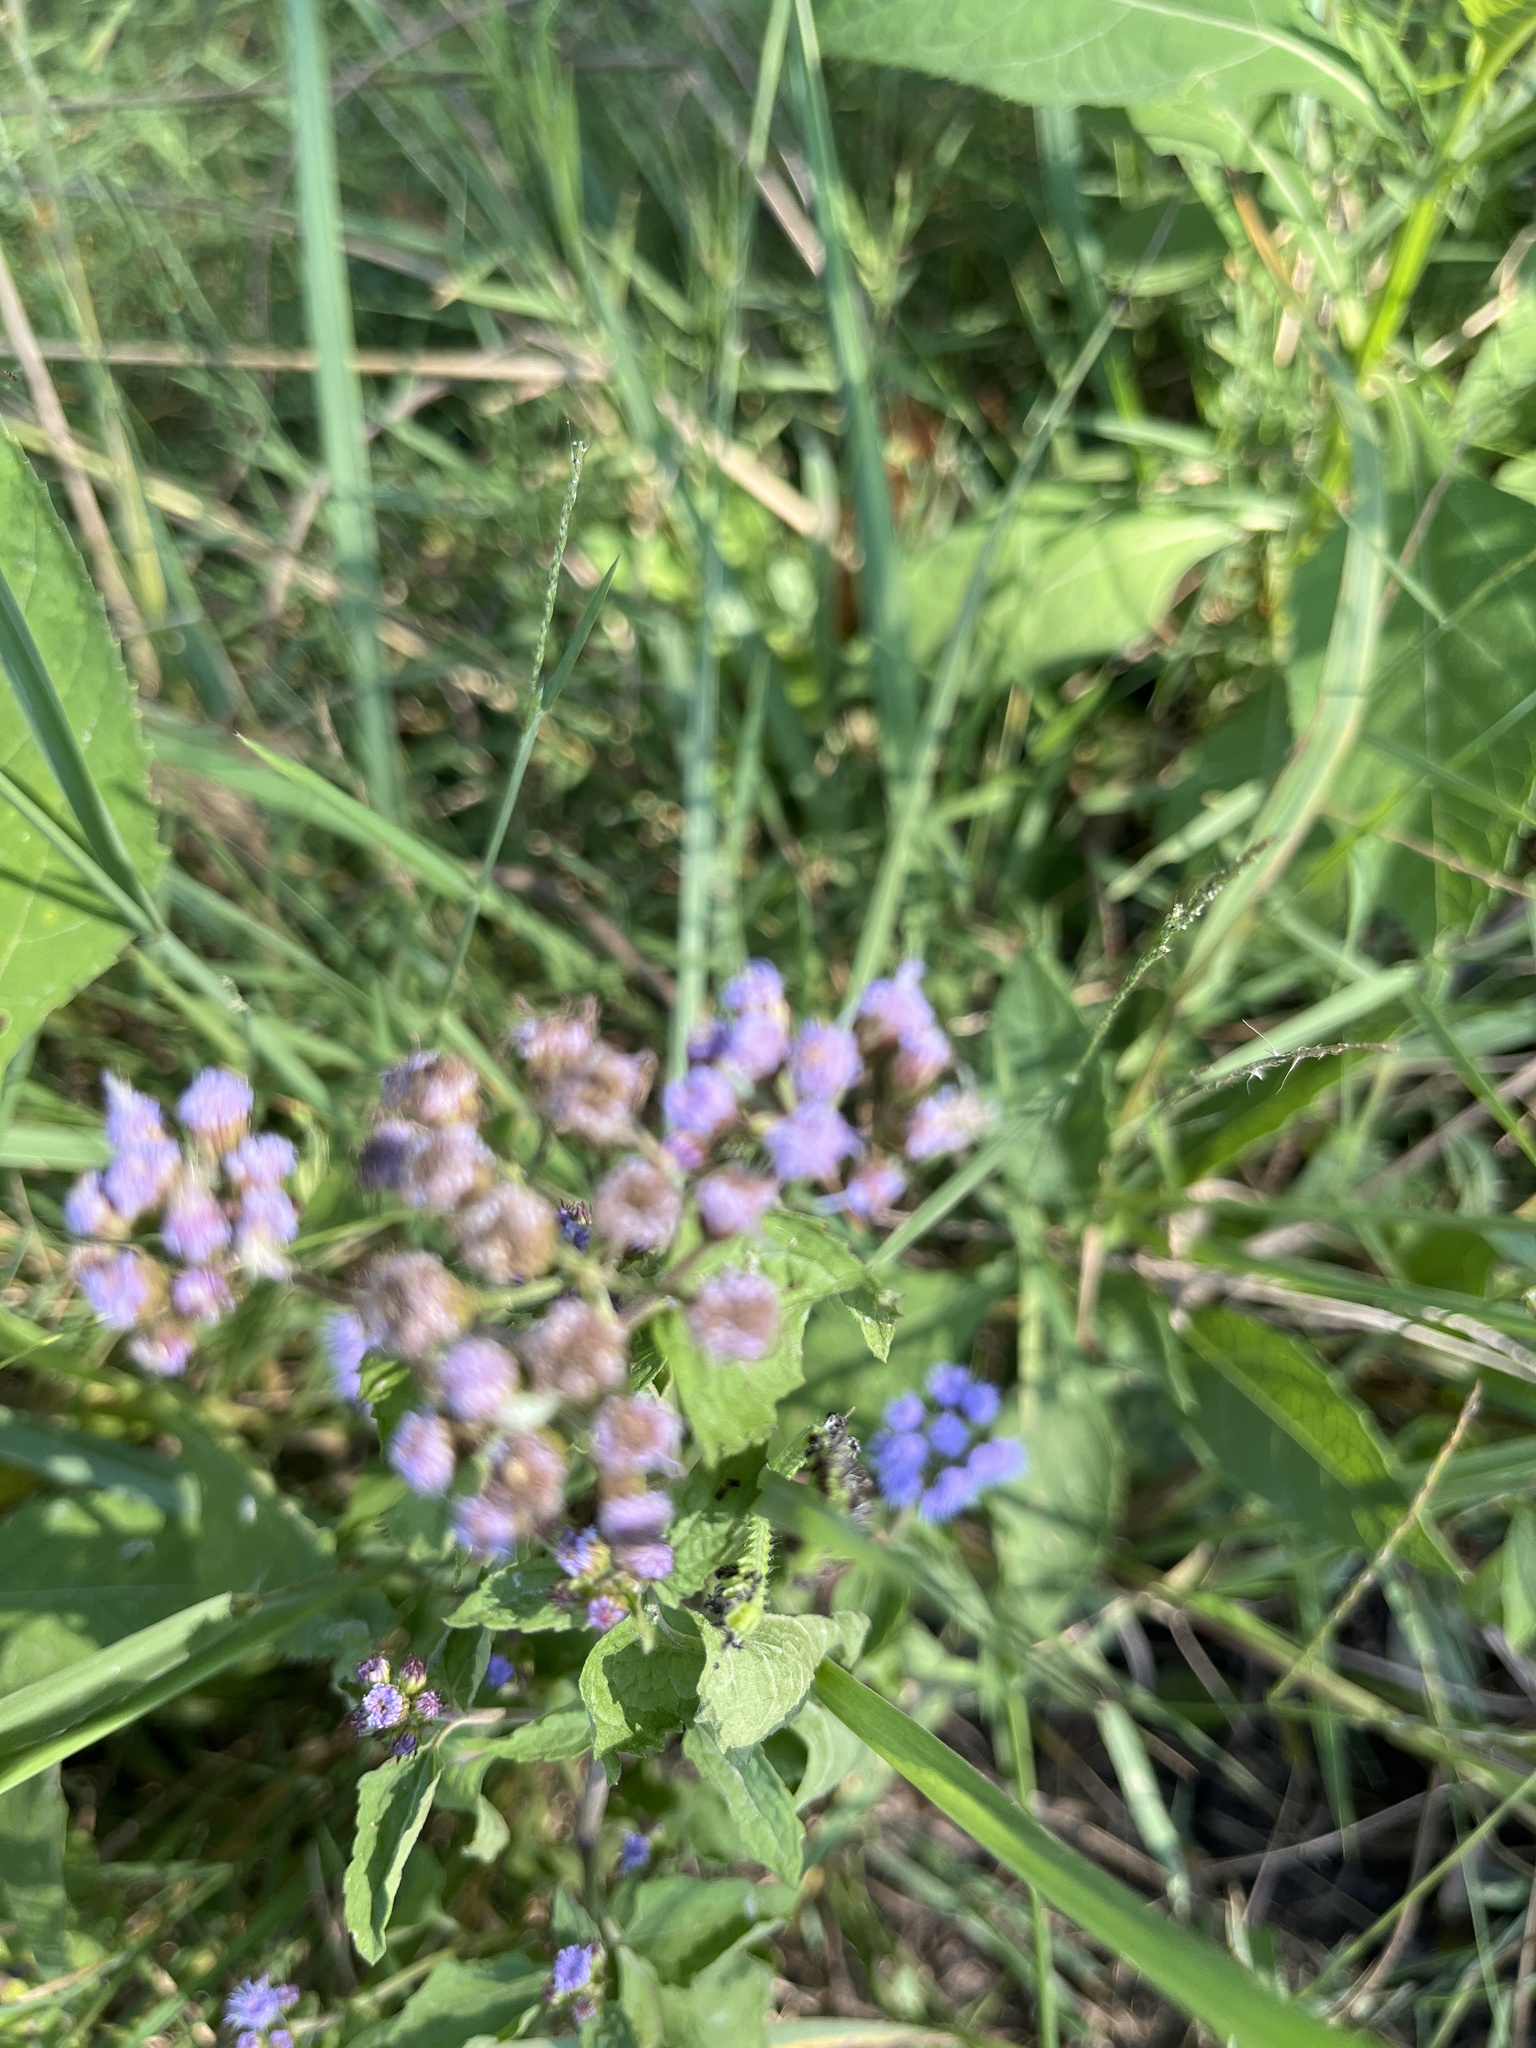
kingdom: Plantae
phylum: Tracheophyta
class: Magnoliopsida
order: Asterales
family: Asteraceae
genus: Conoclinium
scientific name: Conoclinium coelestinum
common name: Blue mistflower
